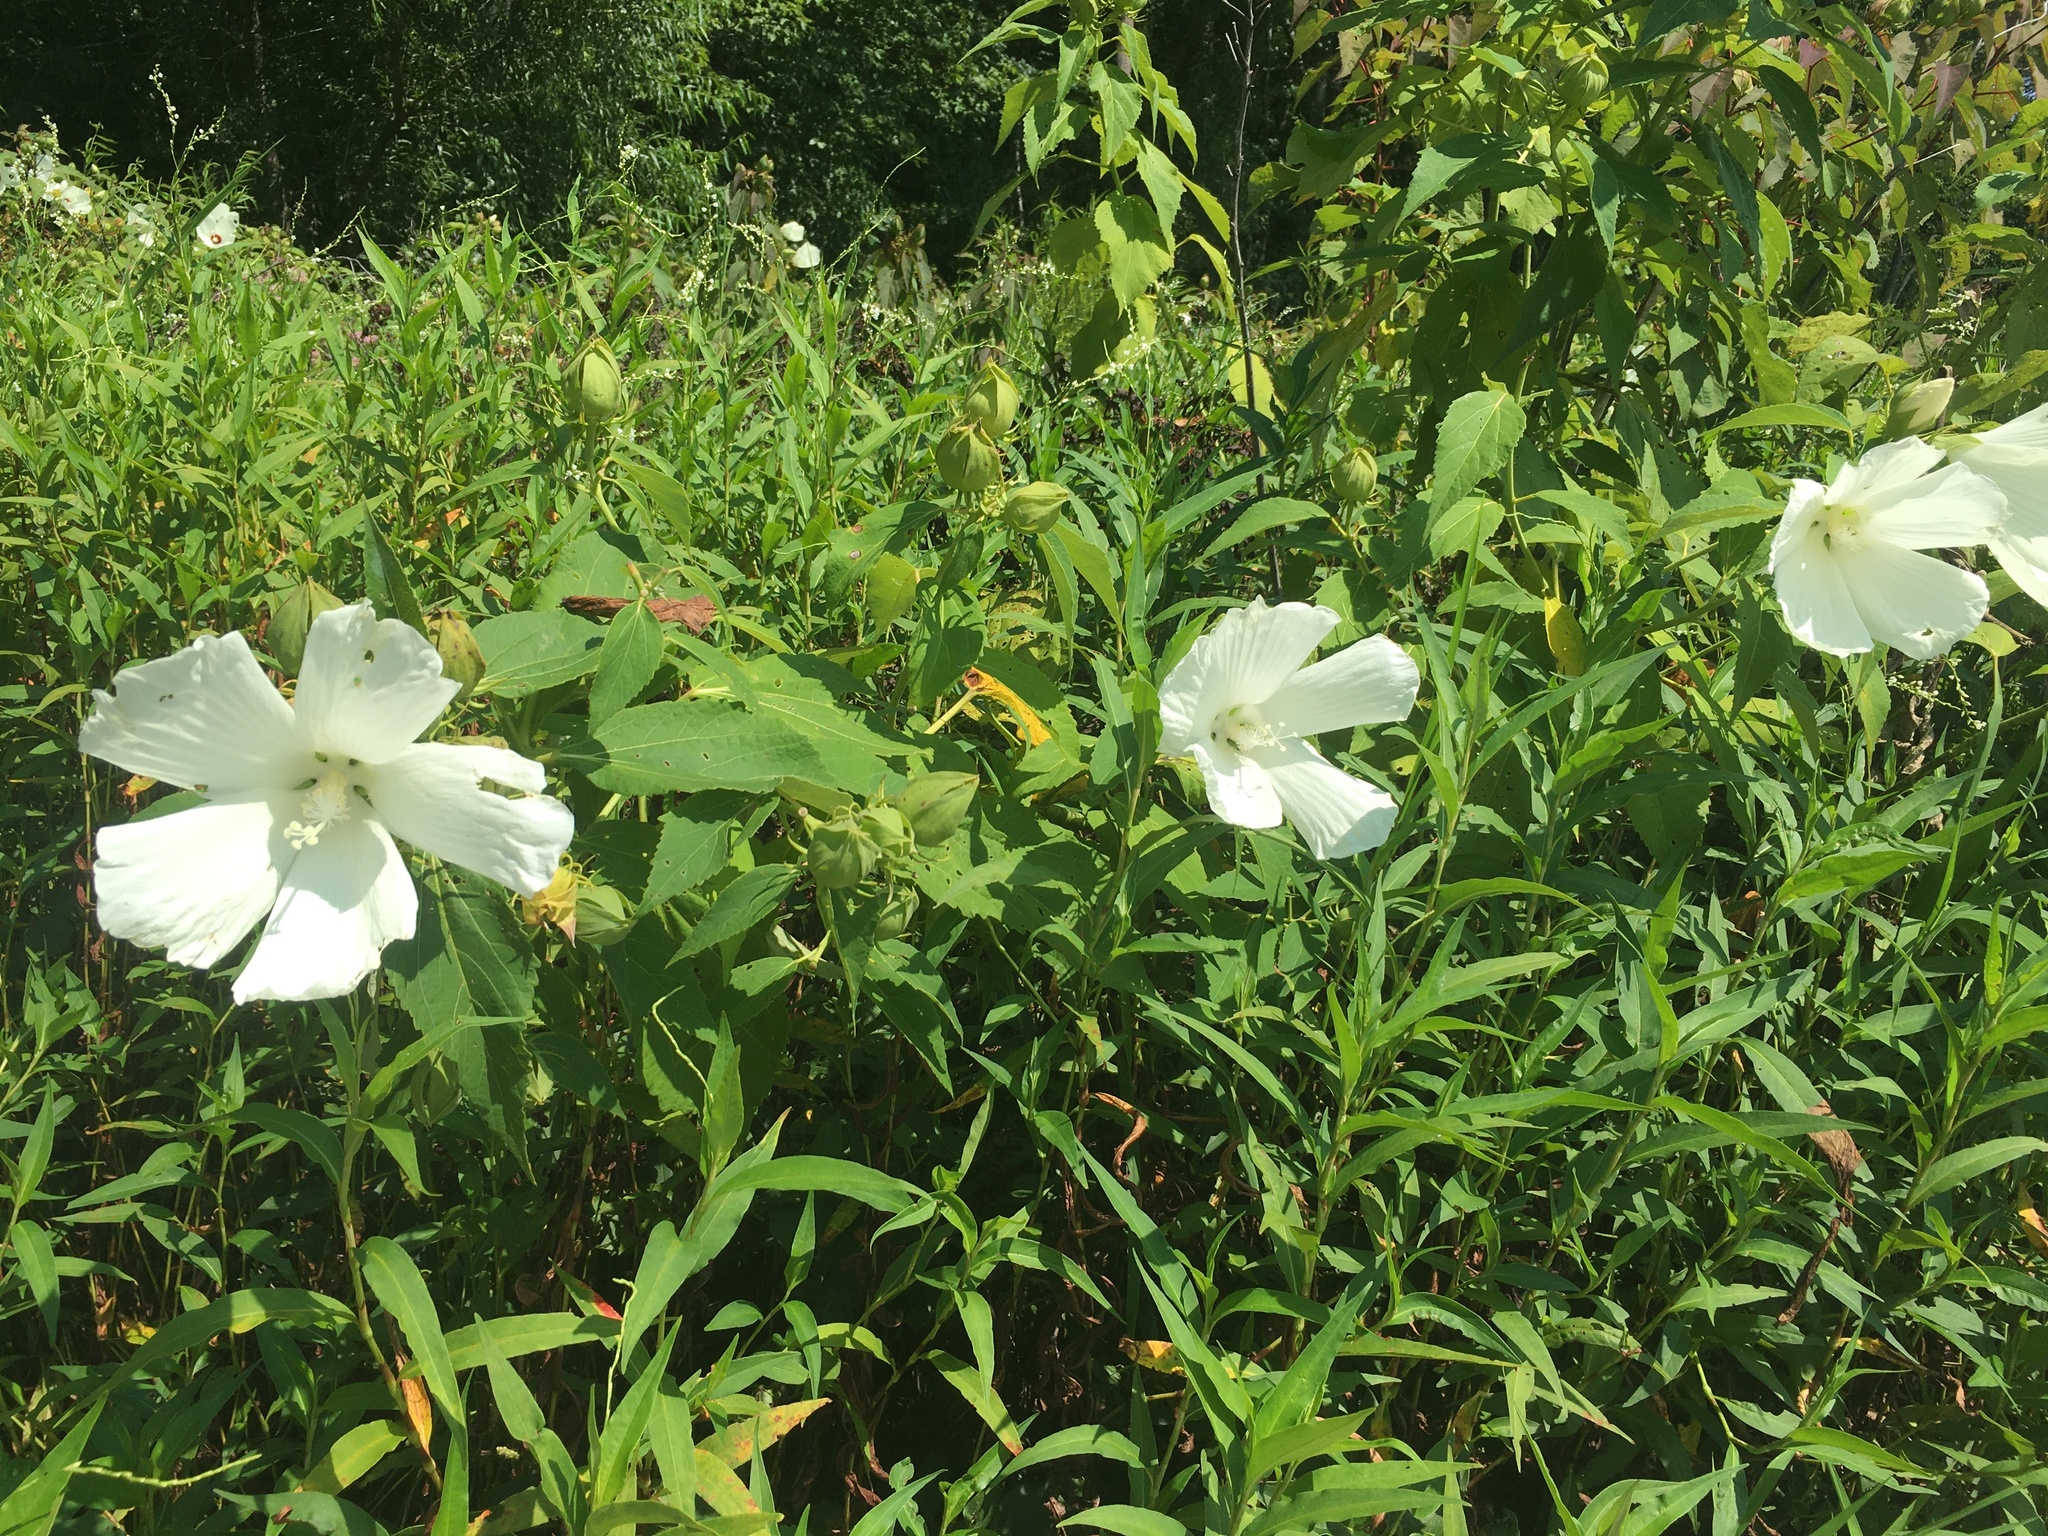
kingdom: Plantae
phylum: Tracheophyta
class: Magnoliopsida
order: Malvales
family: Malvaceae
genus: Hibiscus
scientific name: Hibiscus moscheutos
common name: Common rose-mallow
